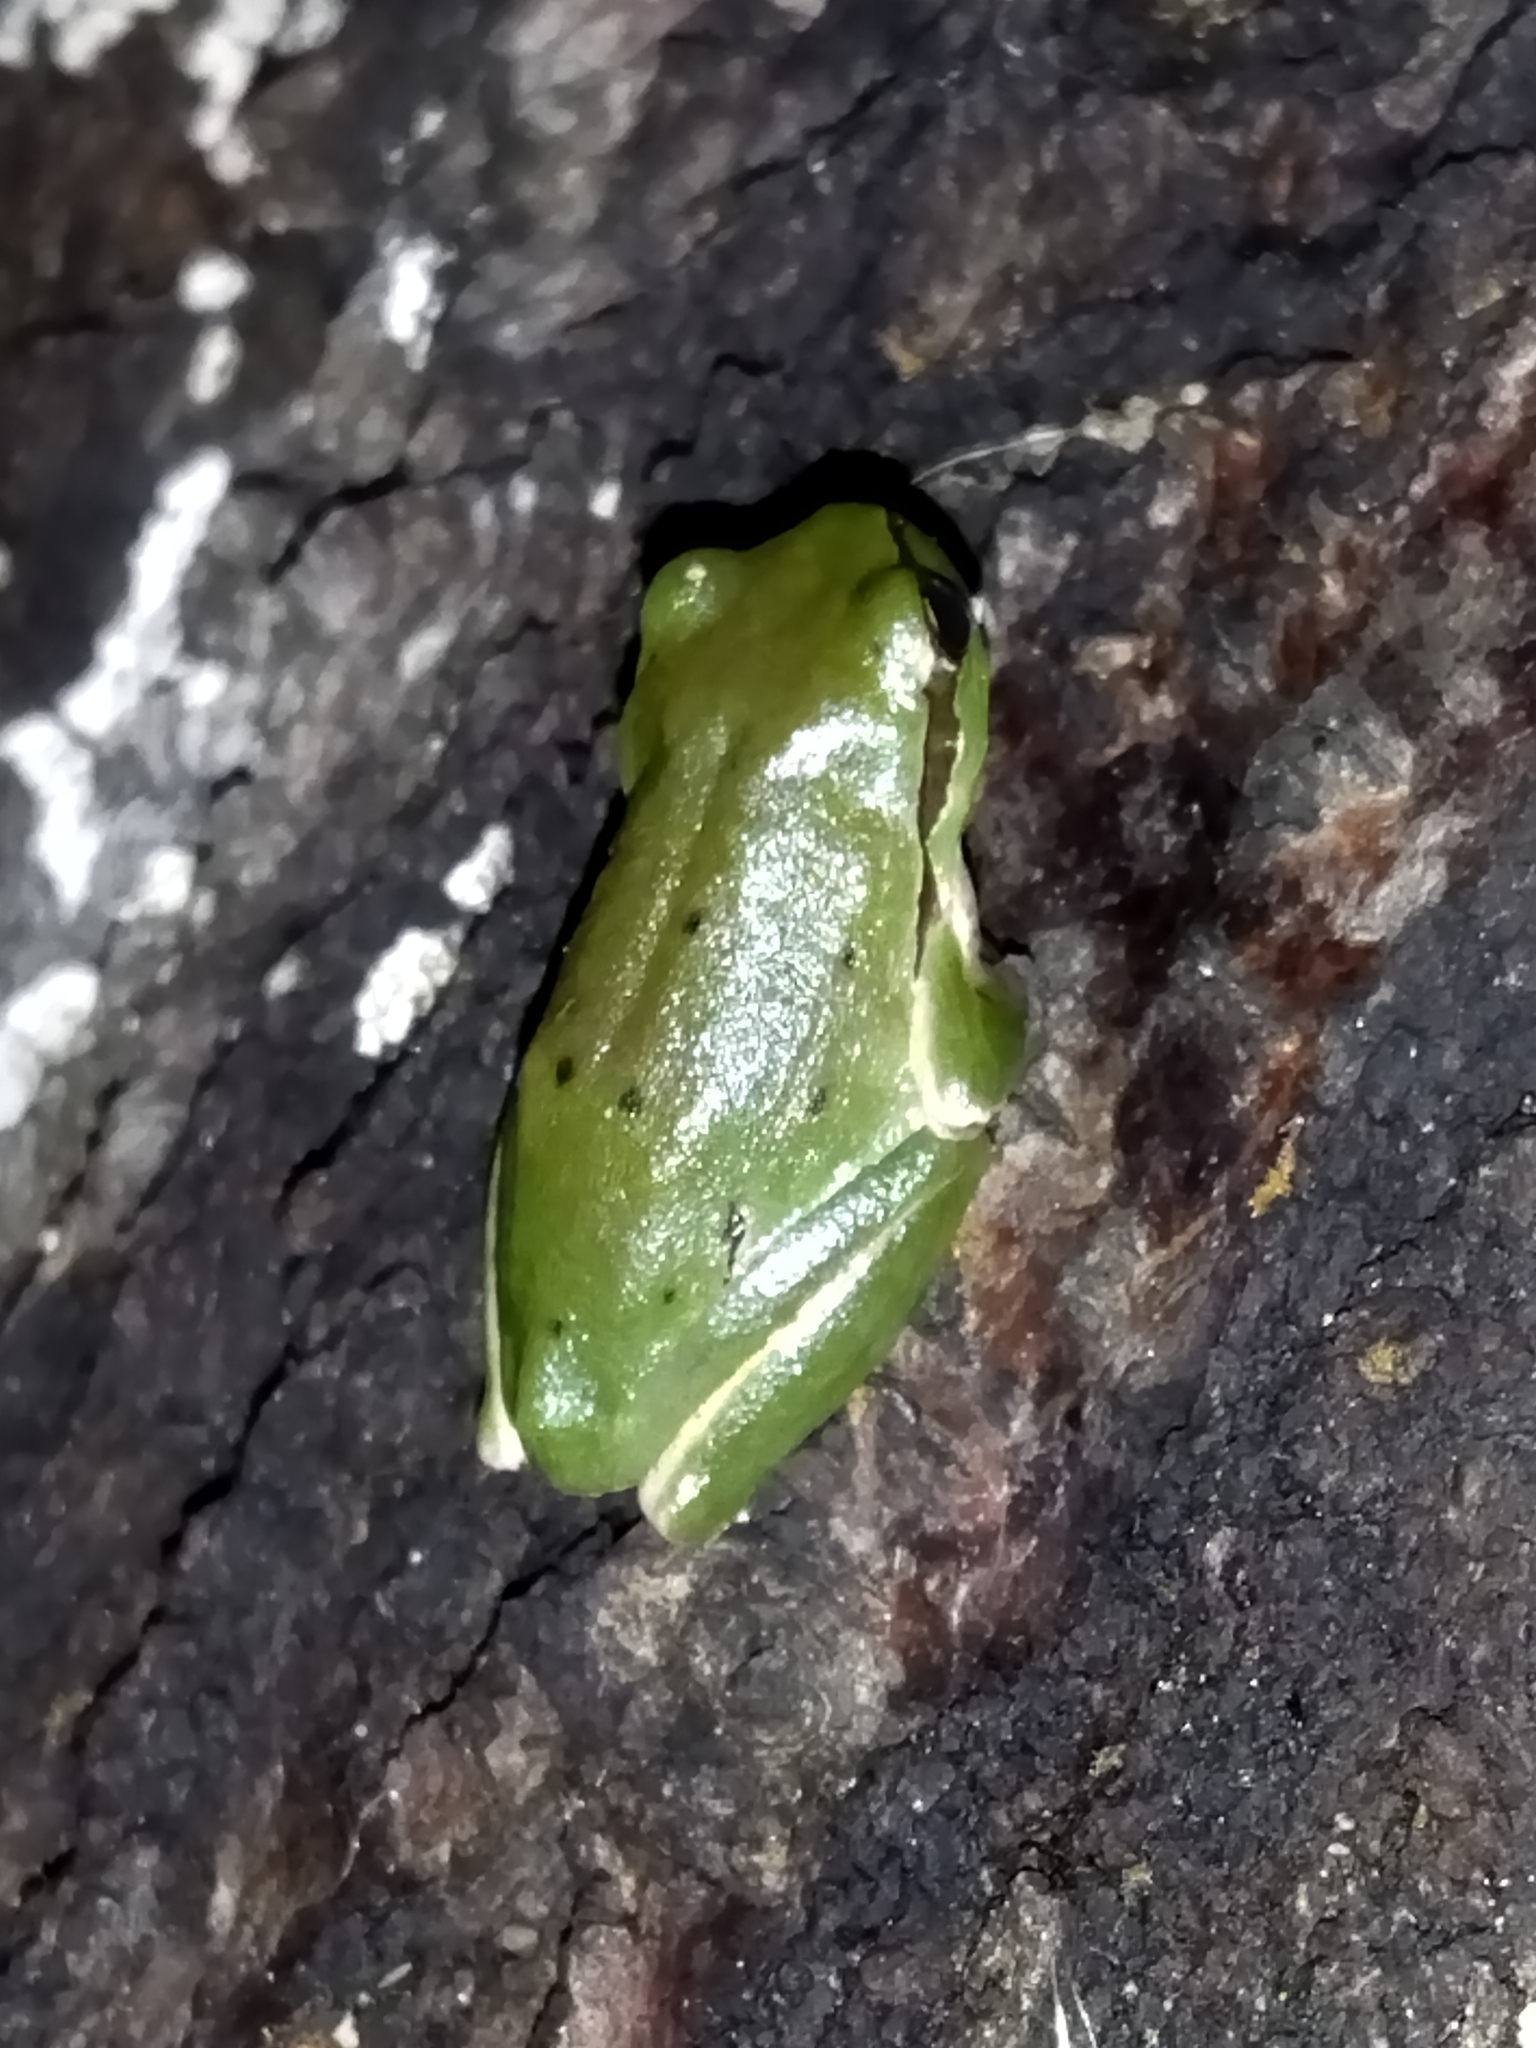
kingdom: Animalia
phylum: Chordata
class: Amphibia
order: Anura
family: Hylidae
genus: Hyla
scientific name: Hyla orientalis
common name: Caucasian treefrog
